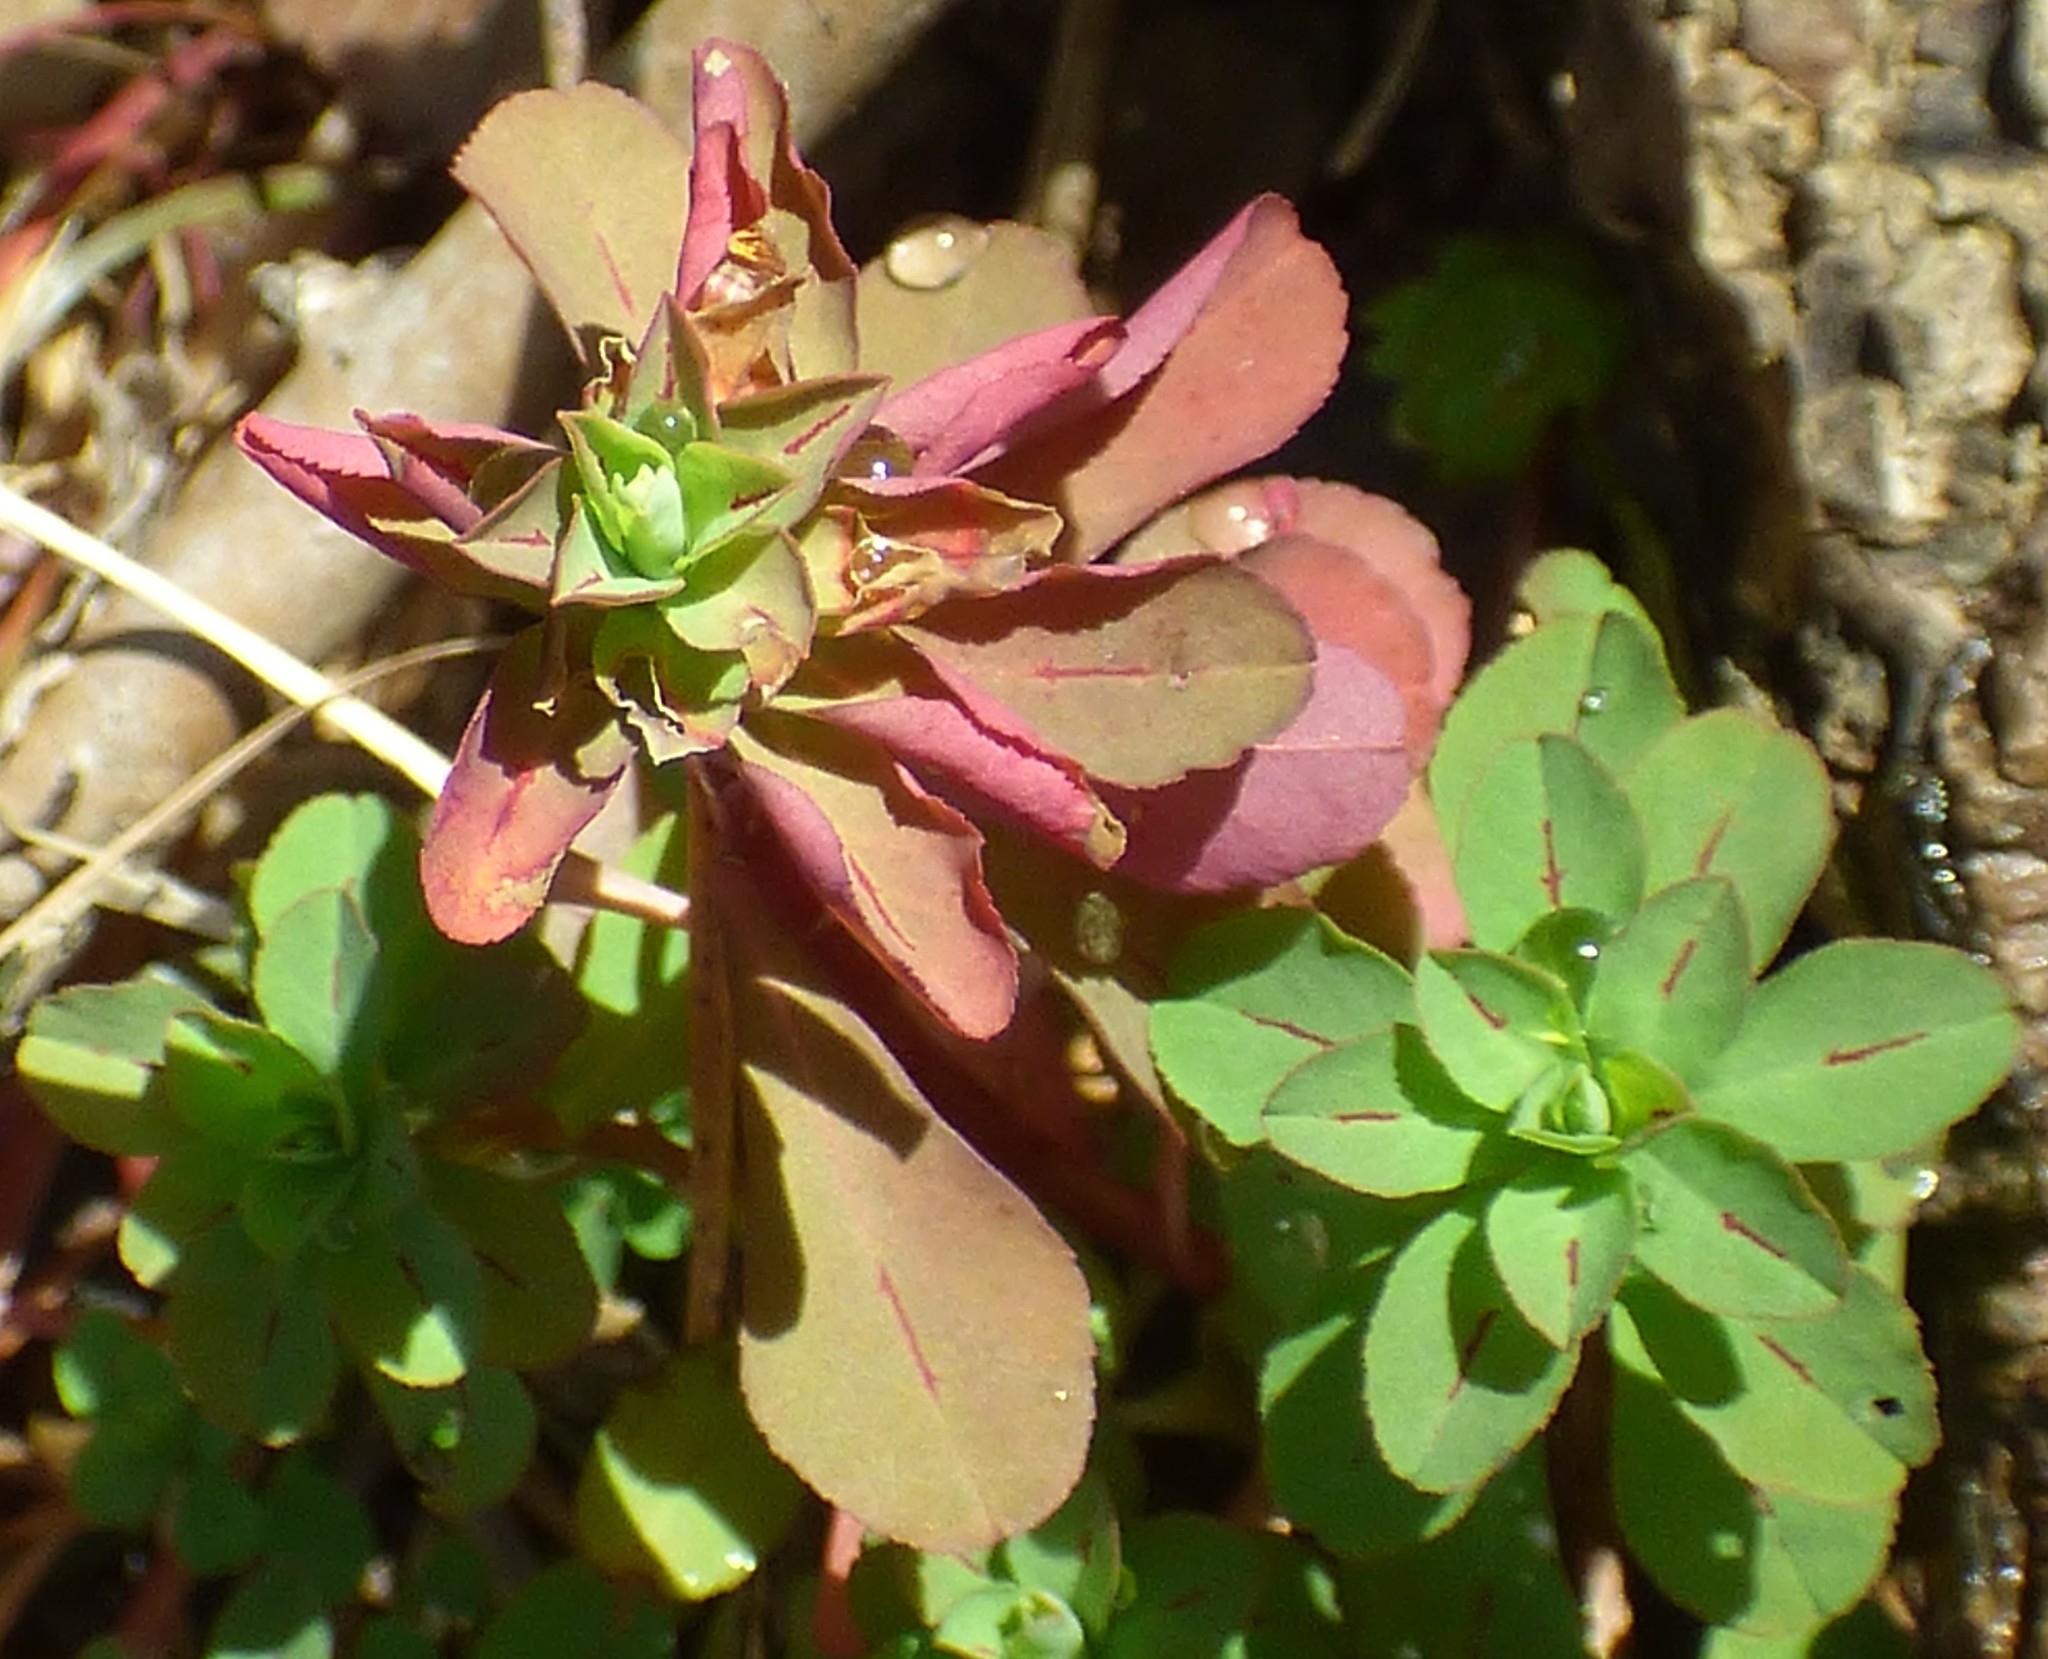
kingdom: Plantae
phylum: Tracheophyta
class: Magnoliopsida
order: Malpighiales
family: Euphorbiaceae
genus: Euphorbia
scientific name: Euphorbia helioscopia
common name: Sun spurge
